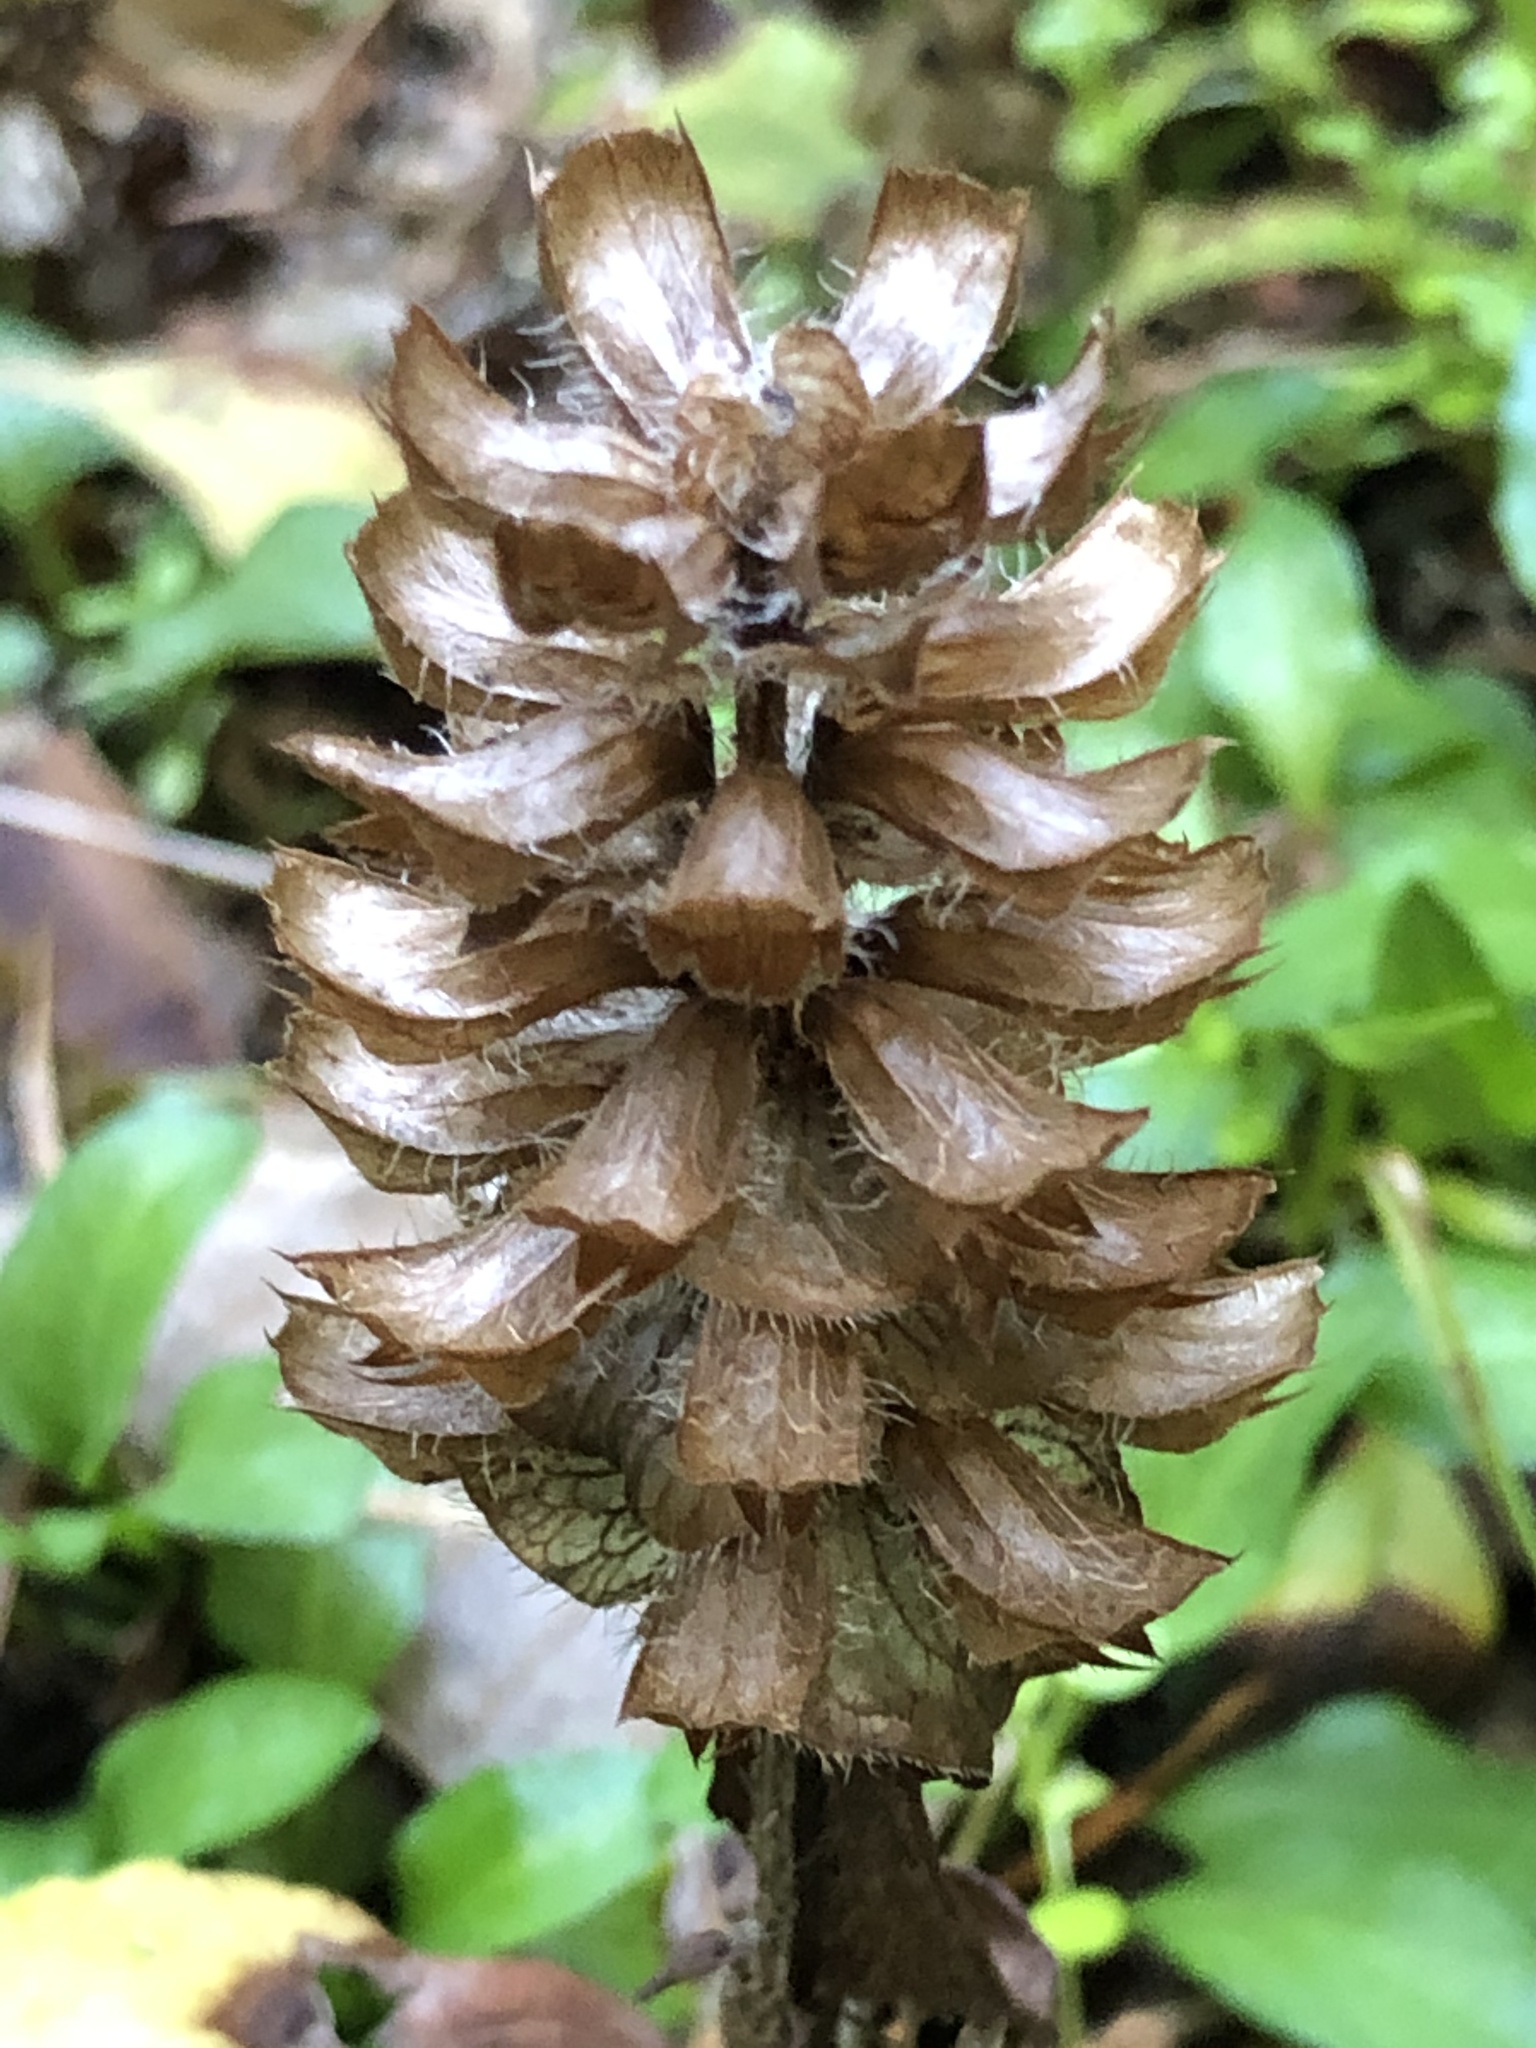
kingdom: Plantae
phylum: Tracheophyta
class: Magnoliopsida
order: Lamiales
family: Lamiaceae
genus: Prunella
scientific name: Prunella vulgaris
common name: Heal-all
